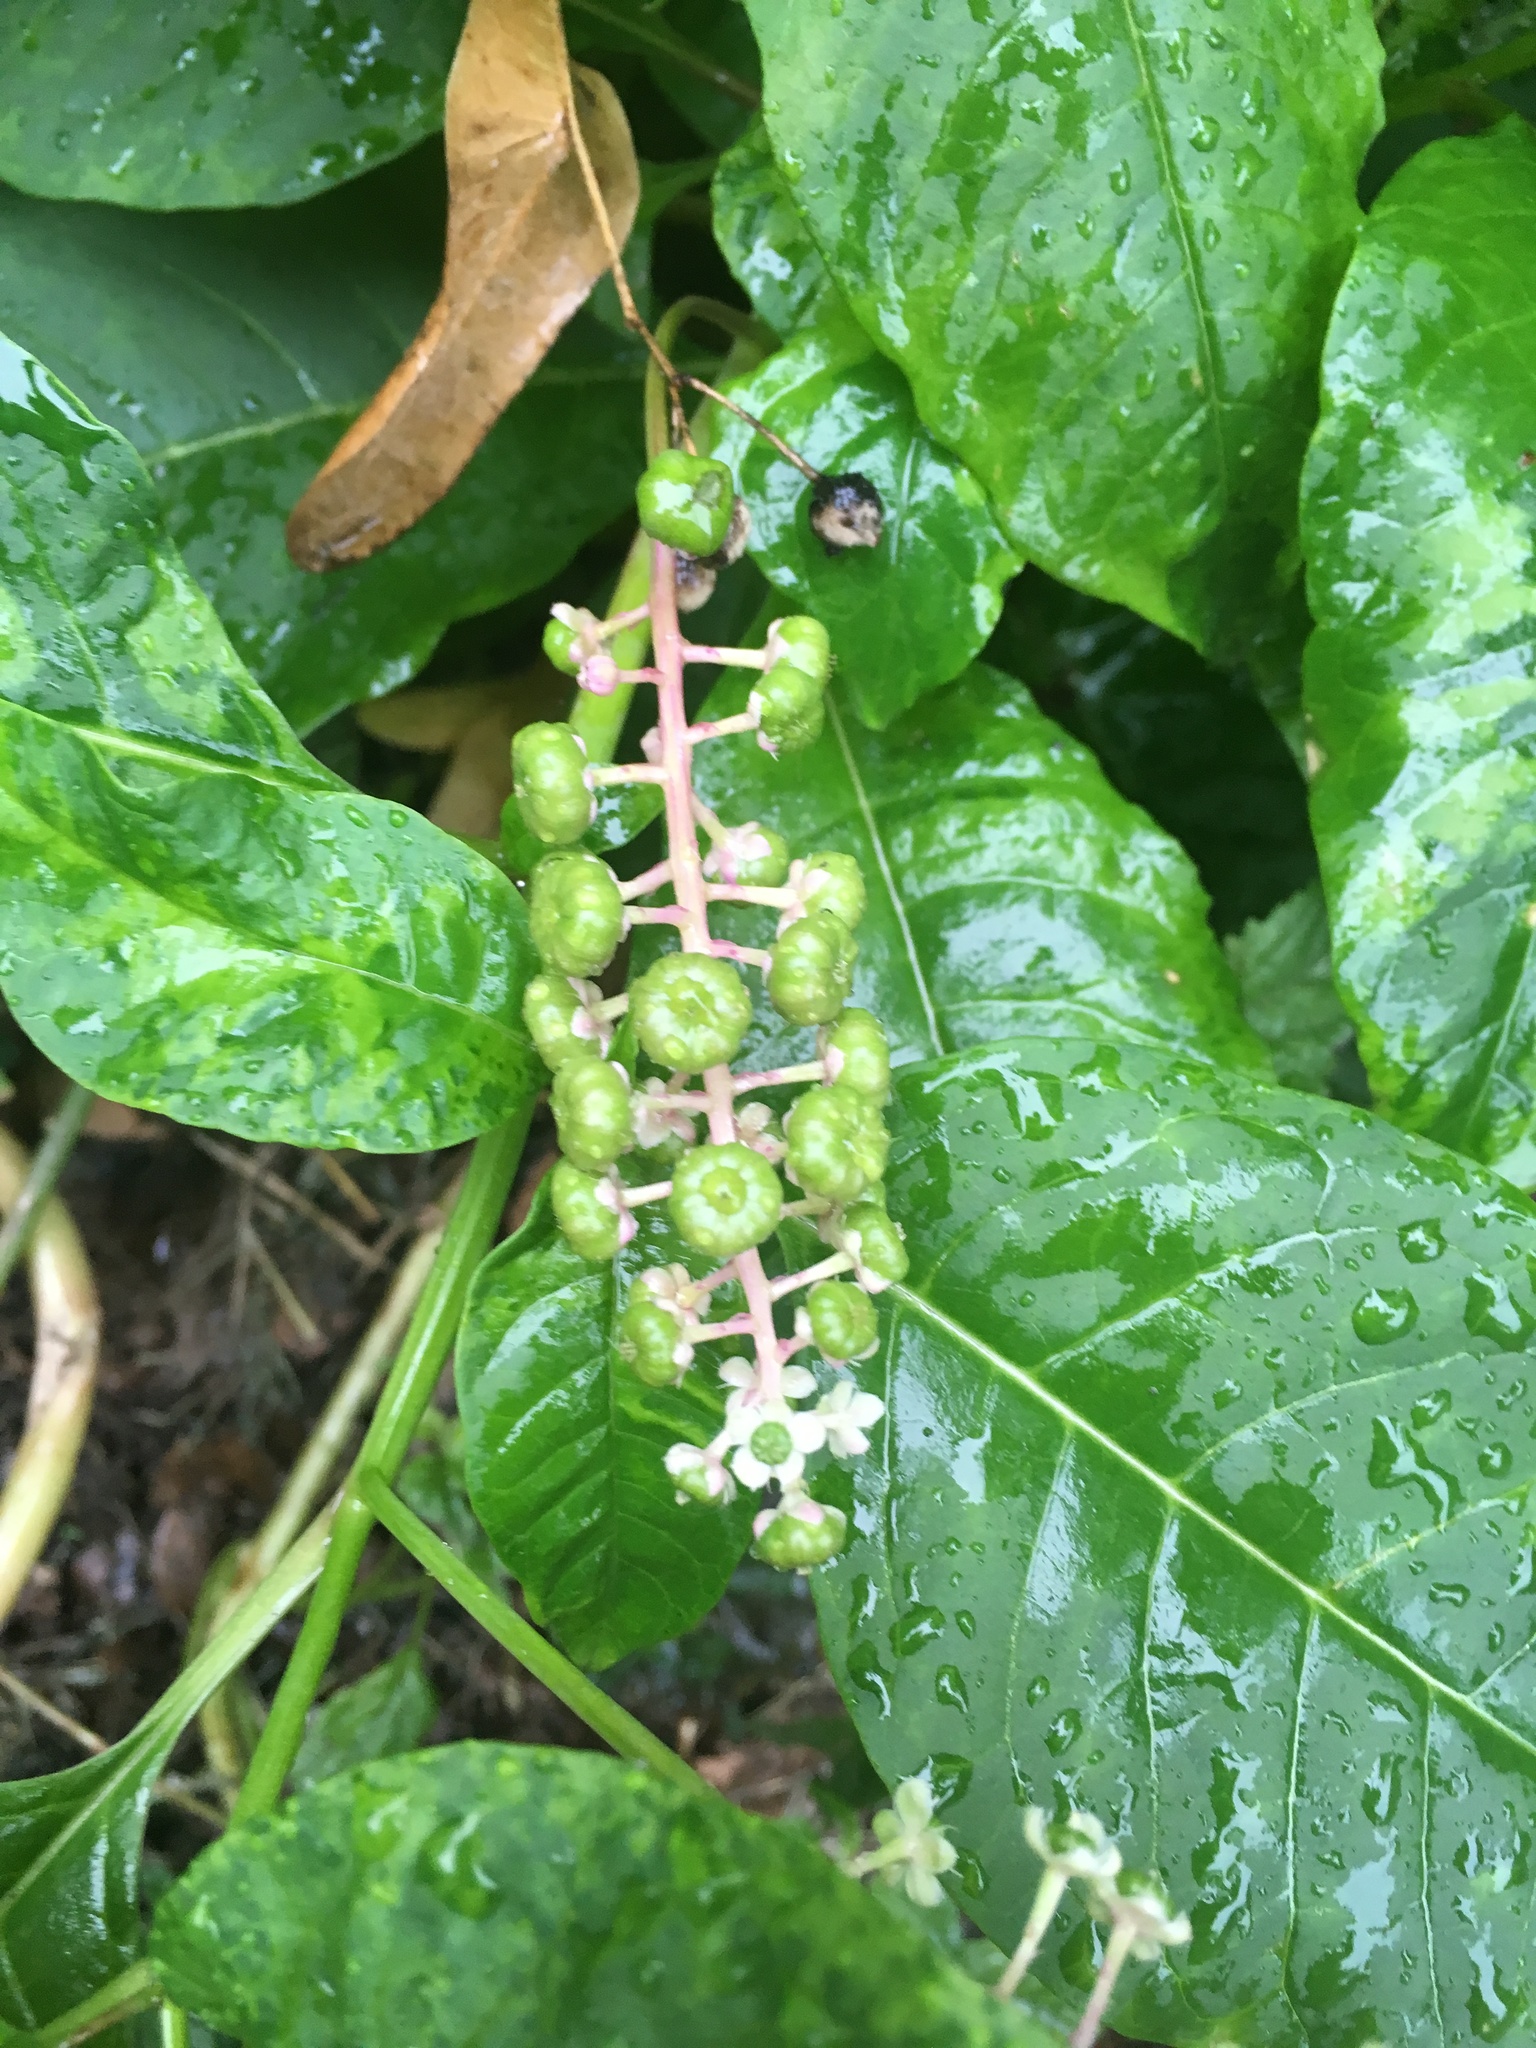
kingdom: Plantae
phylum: Tracheophyta
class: Magnoliopsida
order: Caryophyllales
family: Phytolaccaceae
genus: Phytolacca
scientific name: Phytolacca americana
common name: American pokeweed
